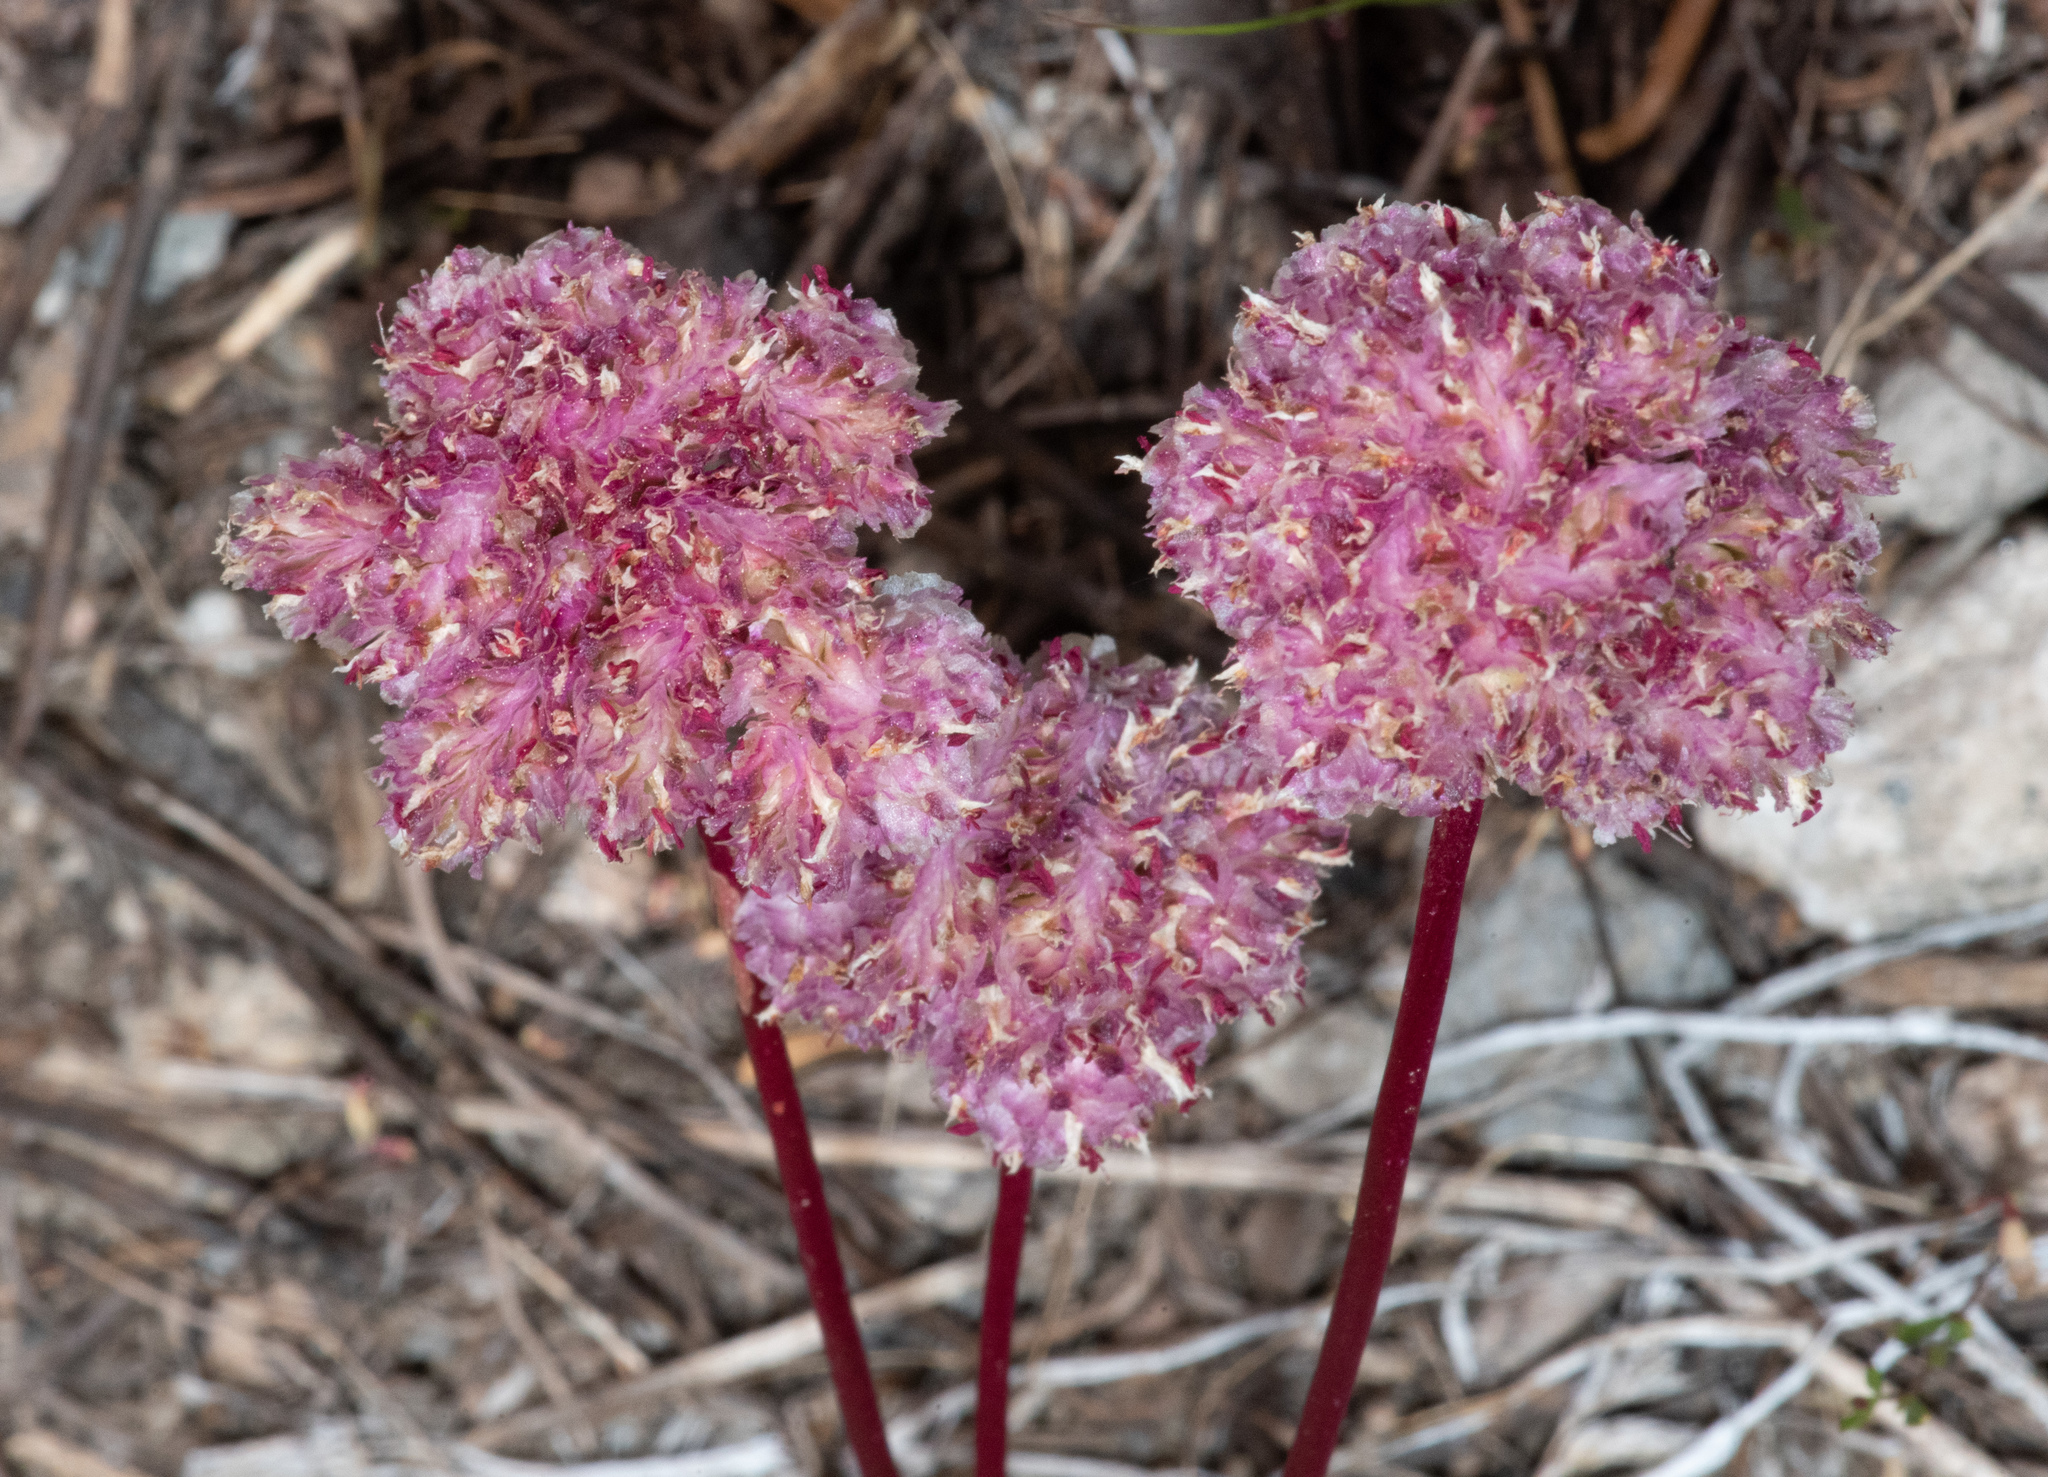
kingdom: Plantae
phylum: Tracheophyta
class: Magnoliopsida
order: Caryophyllales
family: Montiaceae
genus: Calyptridium
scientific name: Calyptridium monospermum
